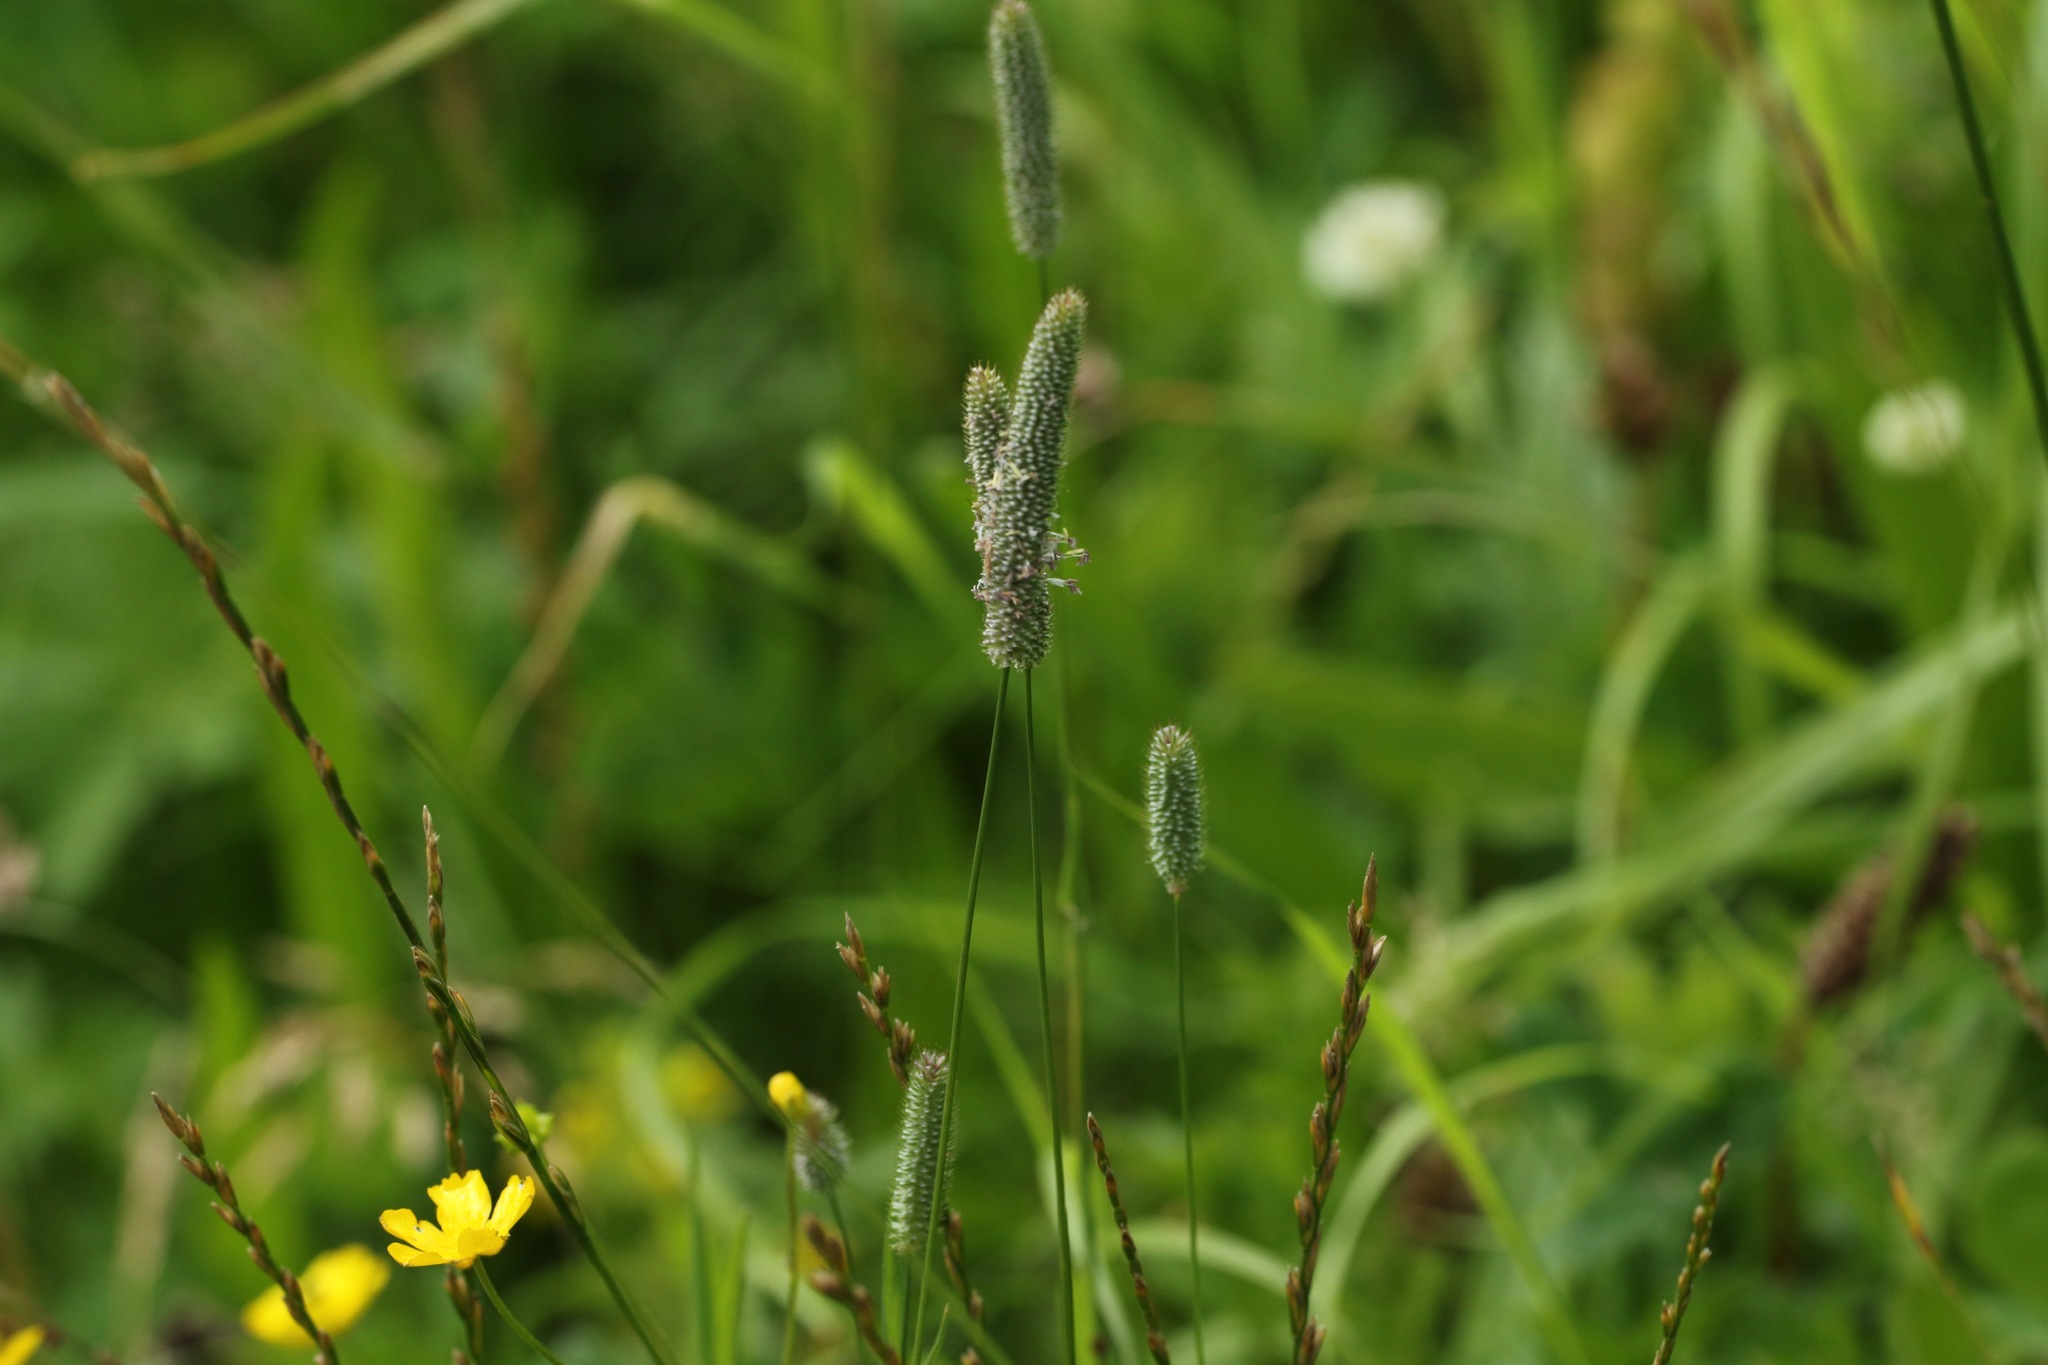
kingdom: Plantae
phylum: Tracheophyta
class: Liliopsida
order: Poales
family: Poaceae
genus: Phleum
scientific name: Phleum pratense
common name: Timothy grass
